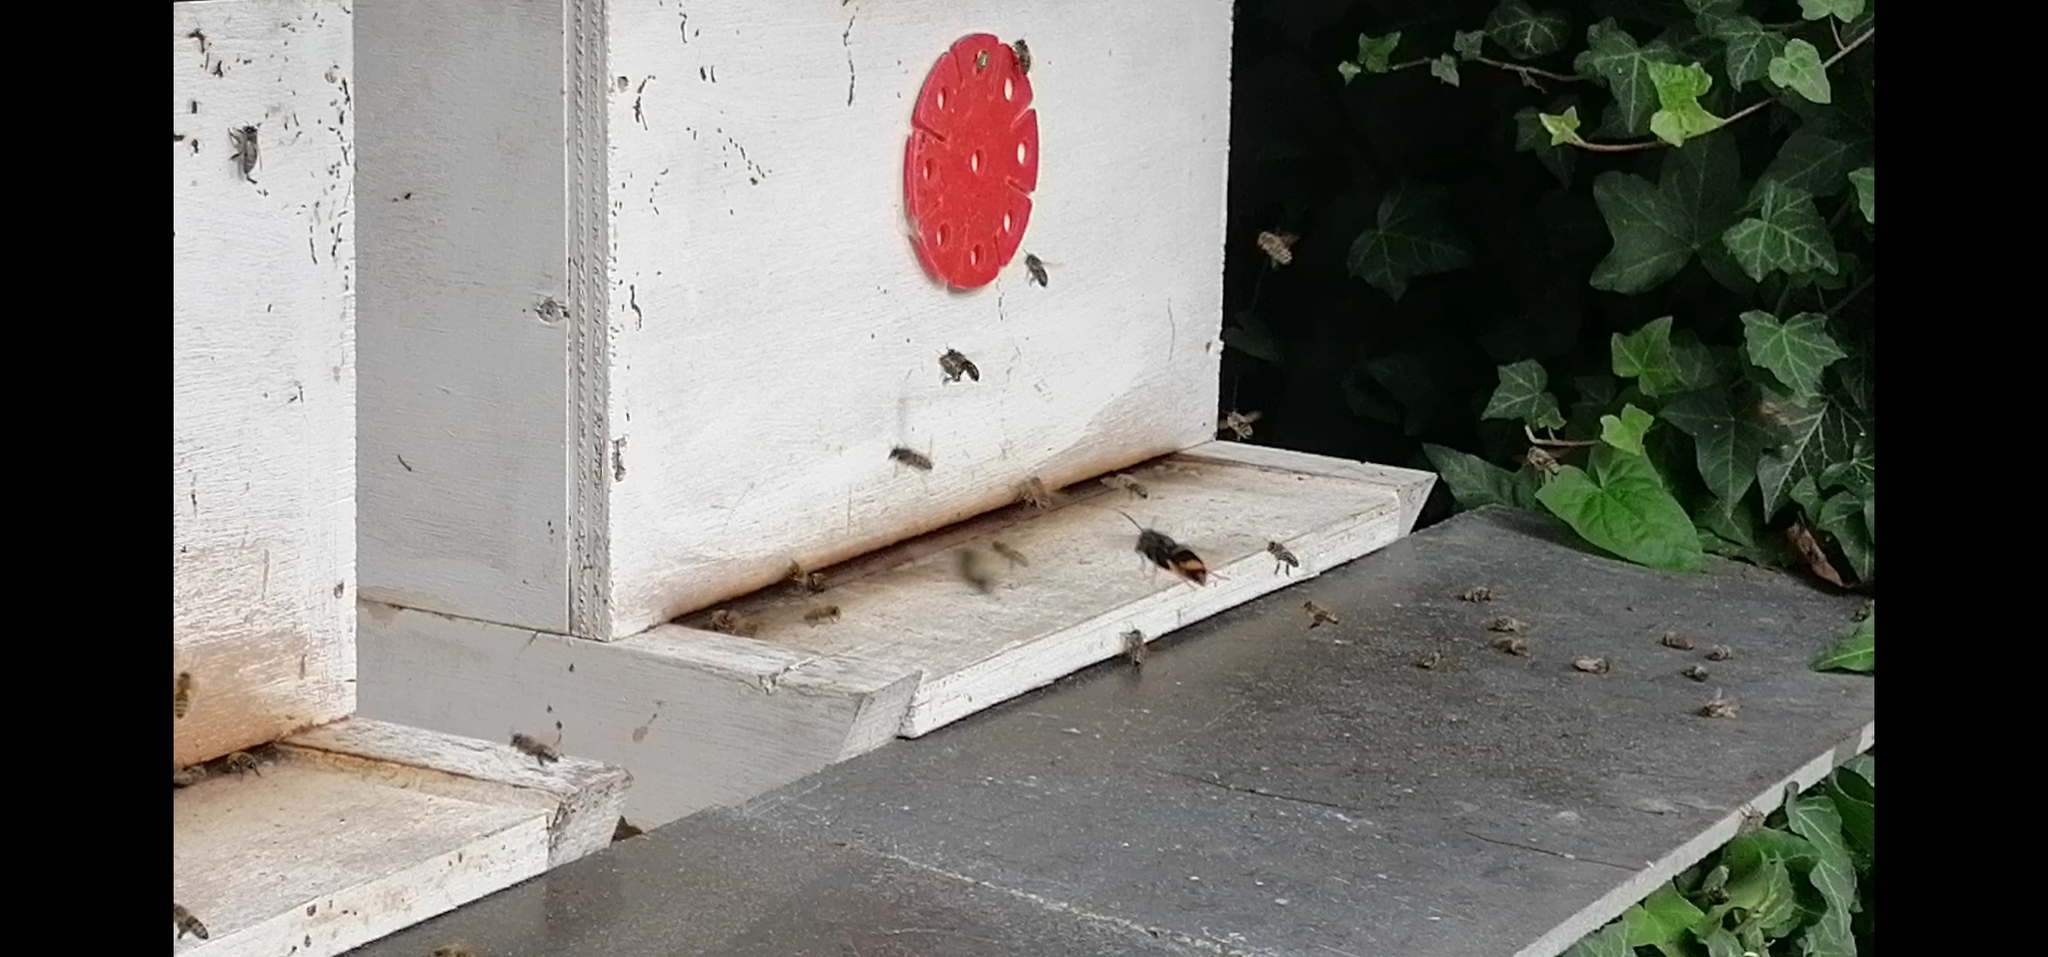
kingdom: Animalia
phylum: Arthropoda
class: Insecta
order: Hymenoptera
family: Vespidae
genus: Vespa
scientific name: Vespa velutina
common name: Asian hornet
